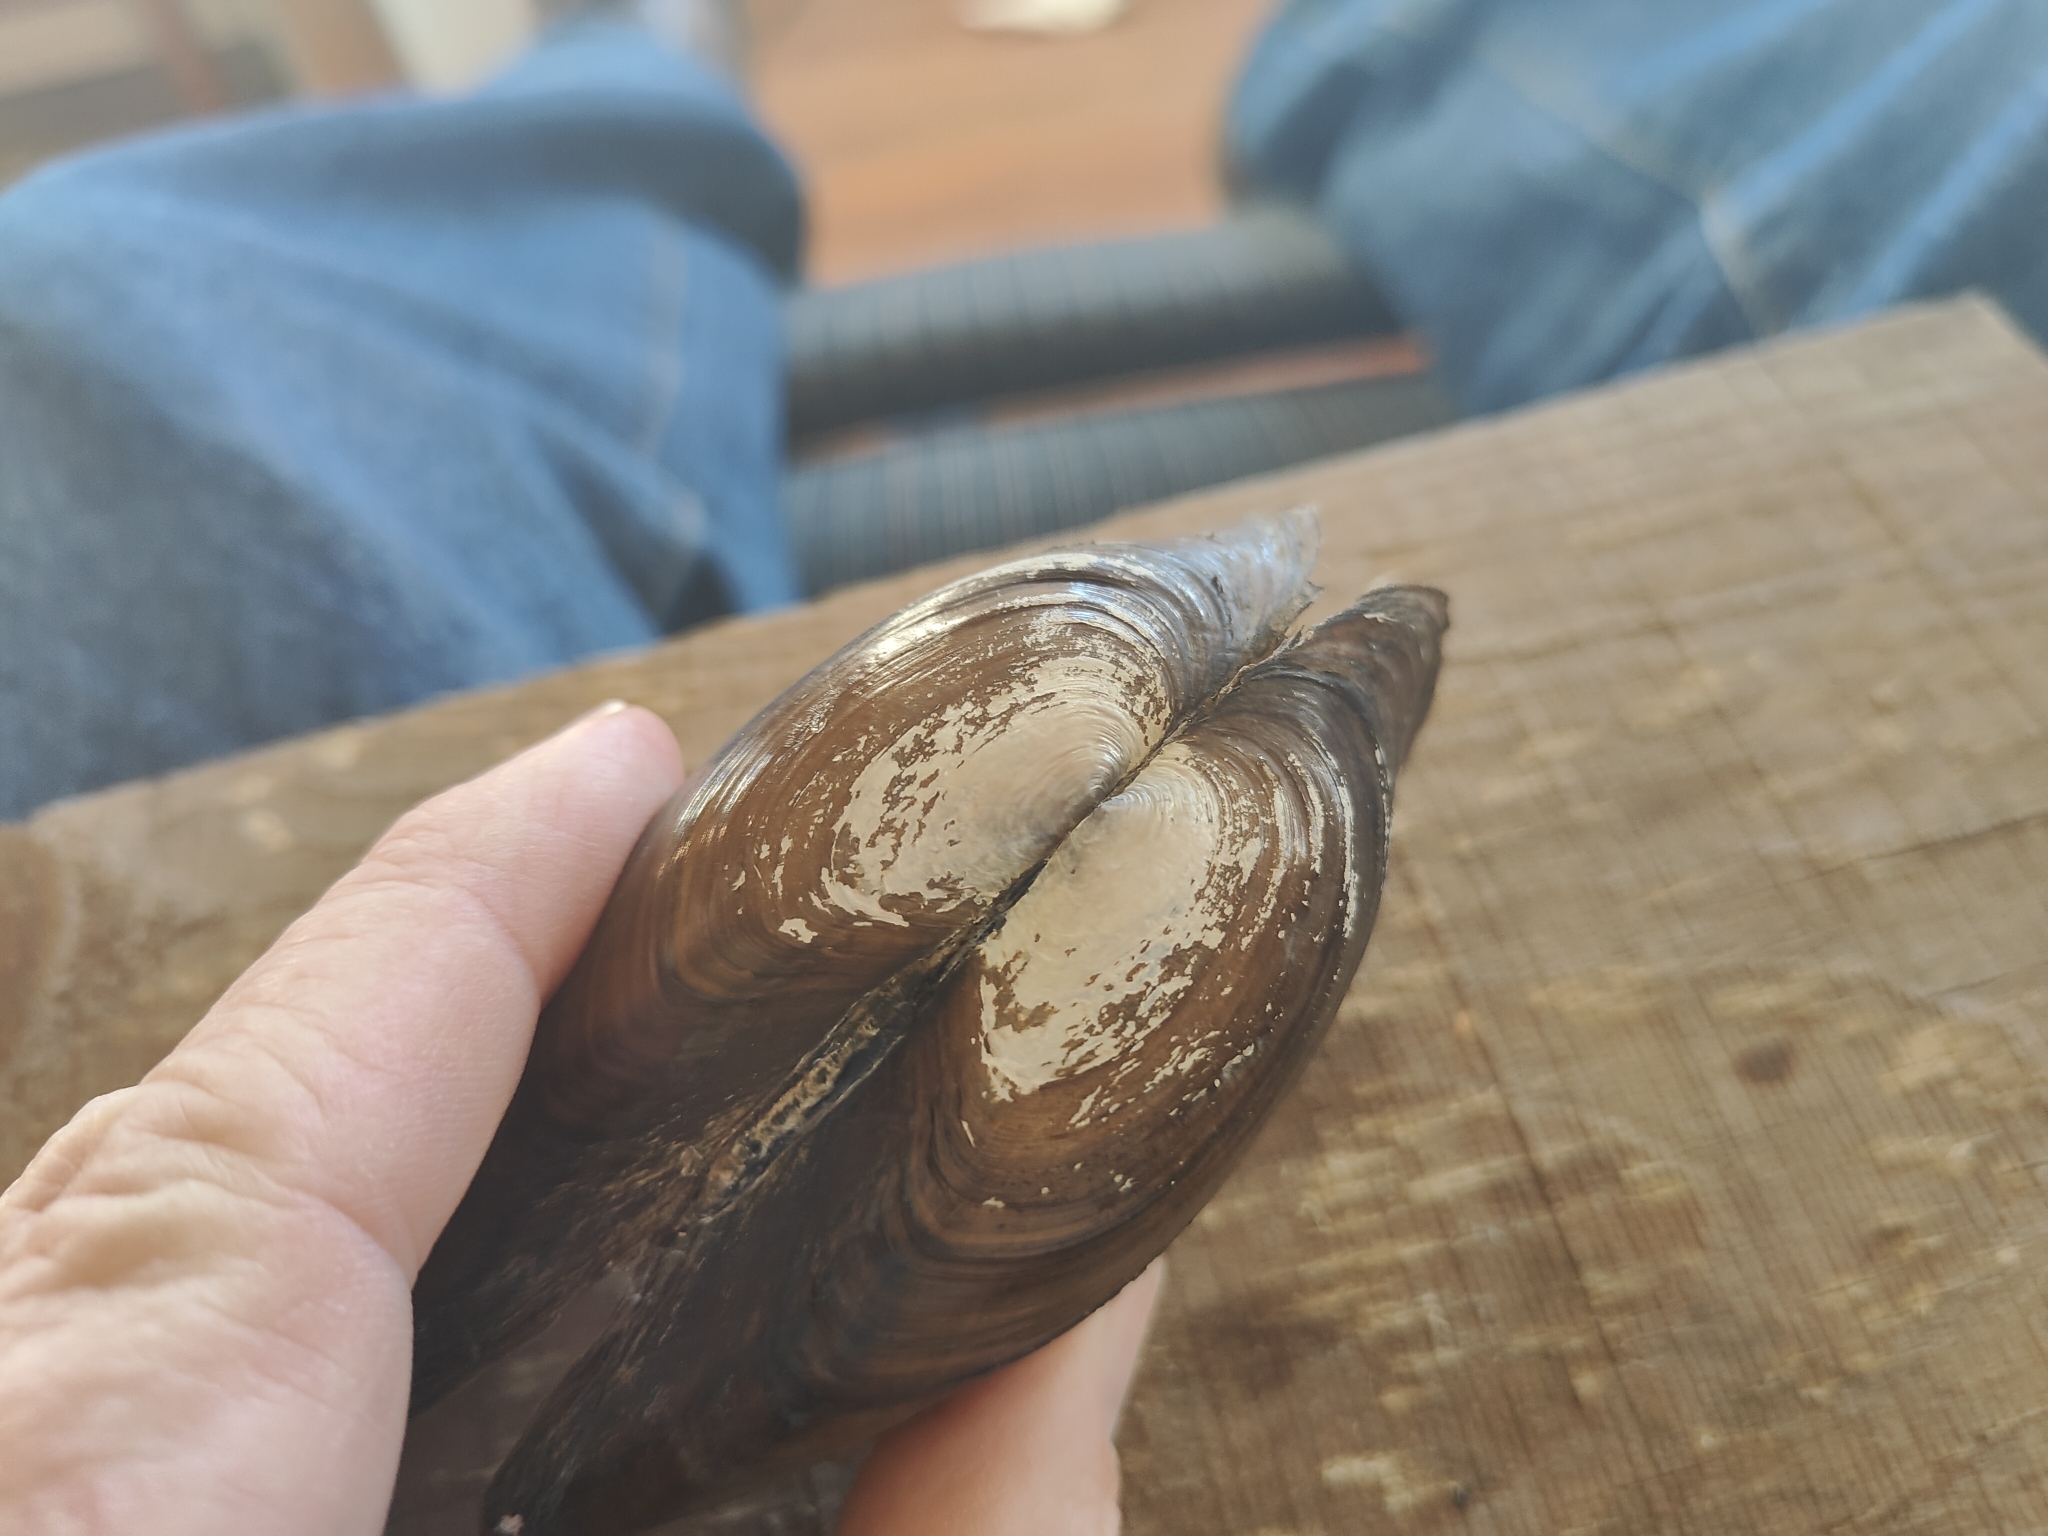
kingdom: Animalia
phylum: Mollusca
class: Bivalvia
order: Unionida
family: Unionidae
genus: Utterbackia
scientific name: Utterbackia imbecillis
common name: Paper pondshell
